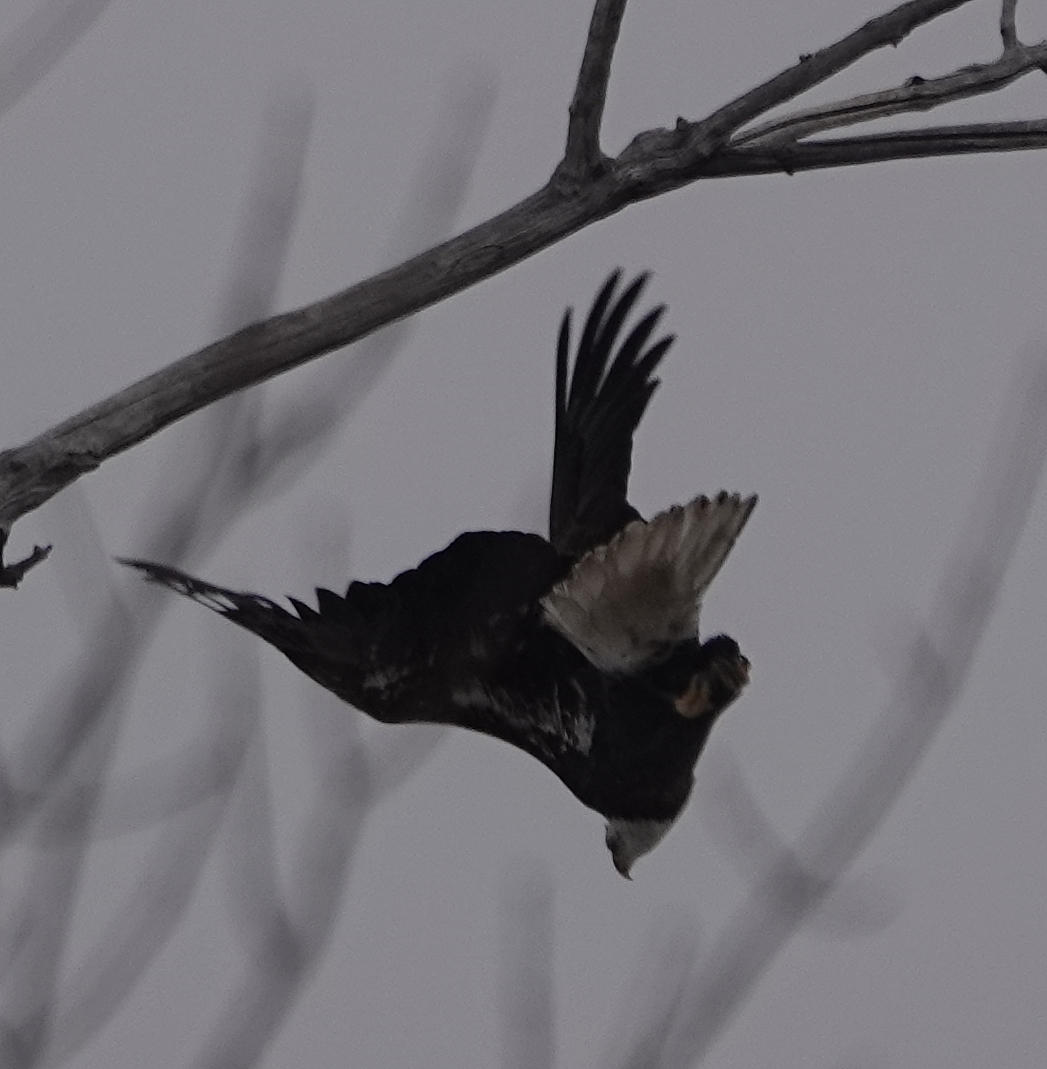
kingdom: Animalia
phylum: Chordata
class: Aves
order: Accipitriformes
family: Accipitridae
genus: Haliaeetus
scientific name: Haliaeetus leucocephalus
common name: Bald eagle
